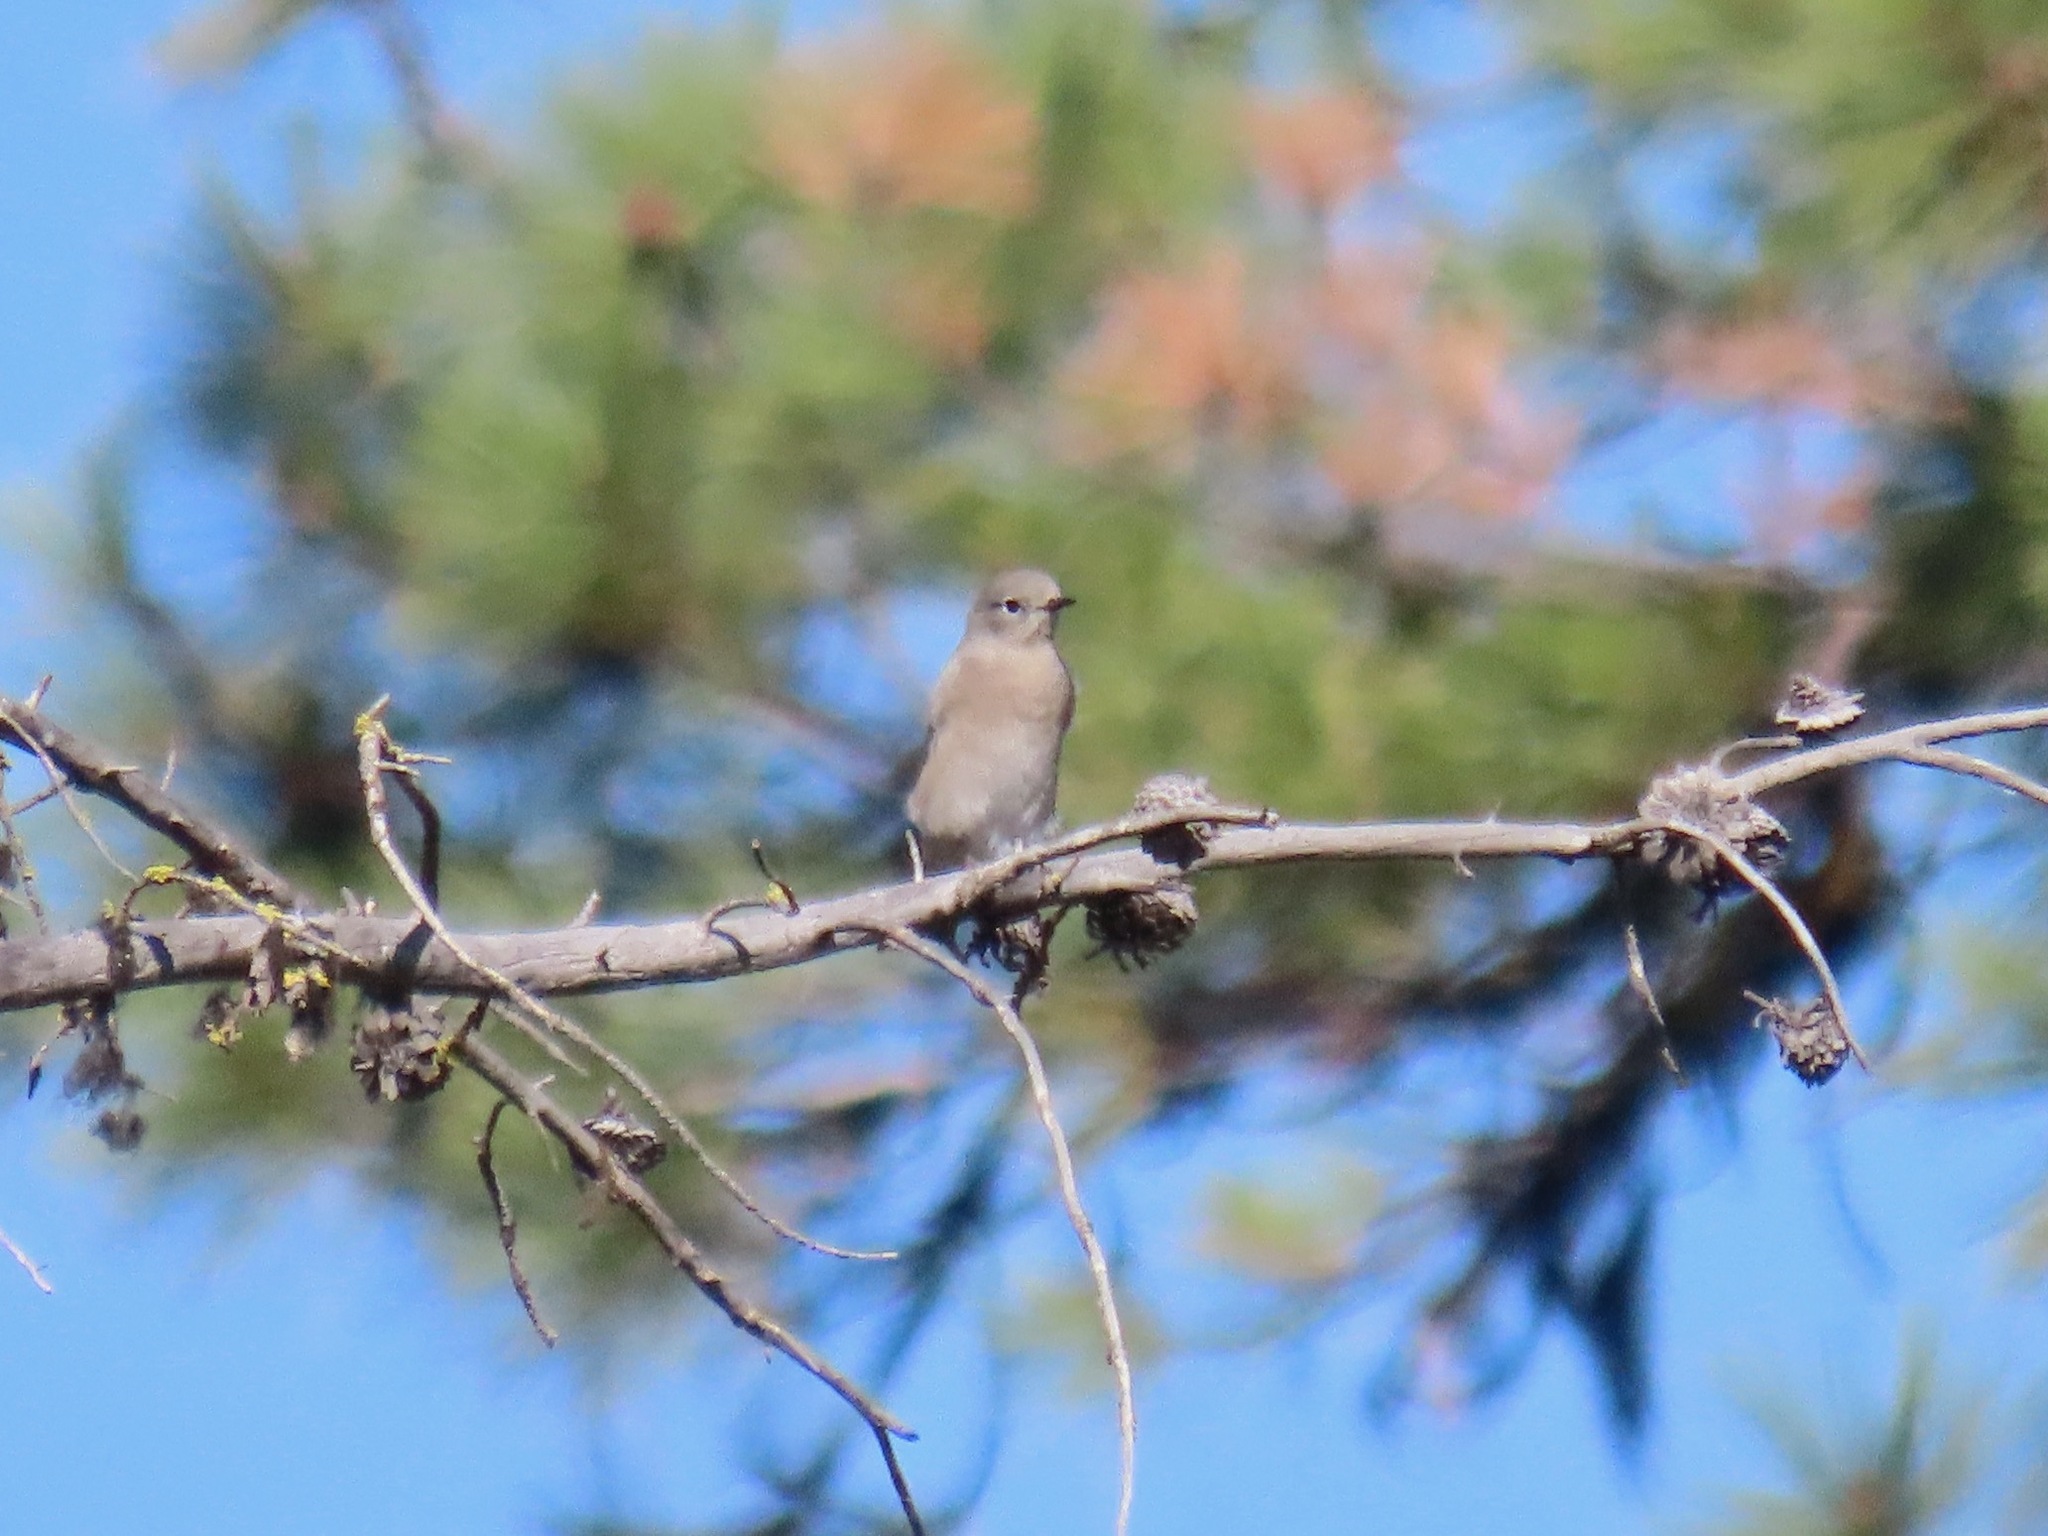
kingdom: Animalia
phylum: Chordata
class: Aves
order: Passeriformes
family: Turdidae
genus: Sialia
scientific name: Sialia currucoides
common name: Mountain bluebird
